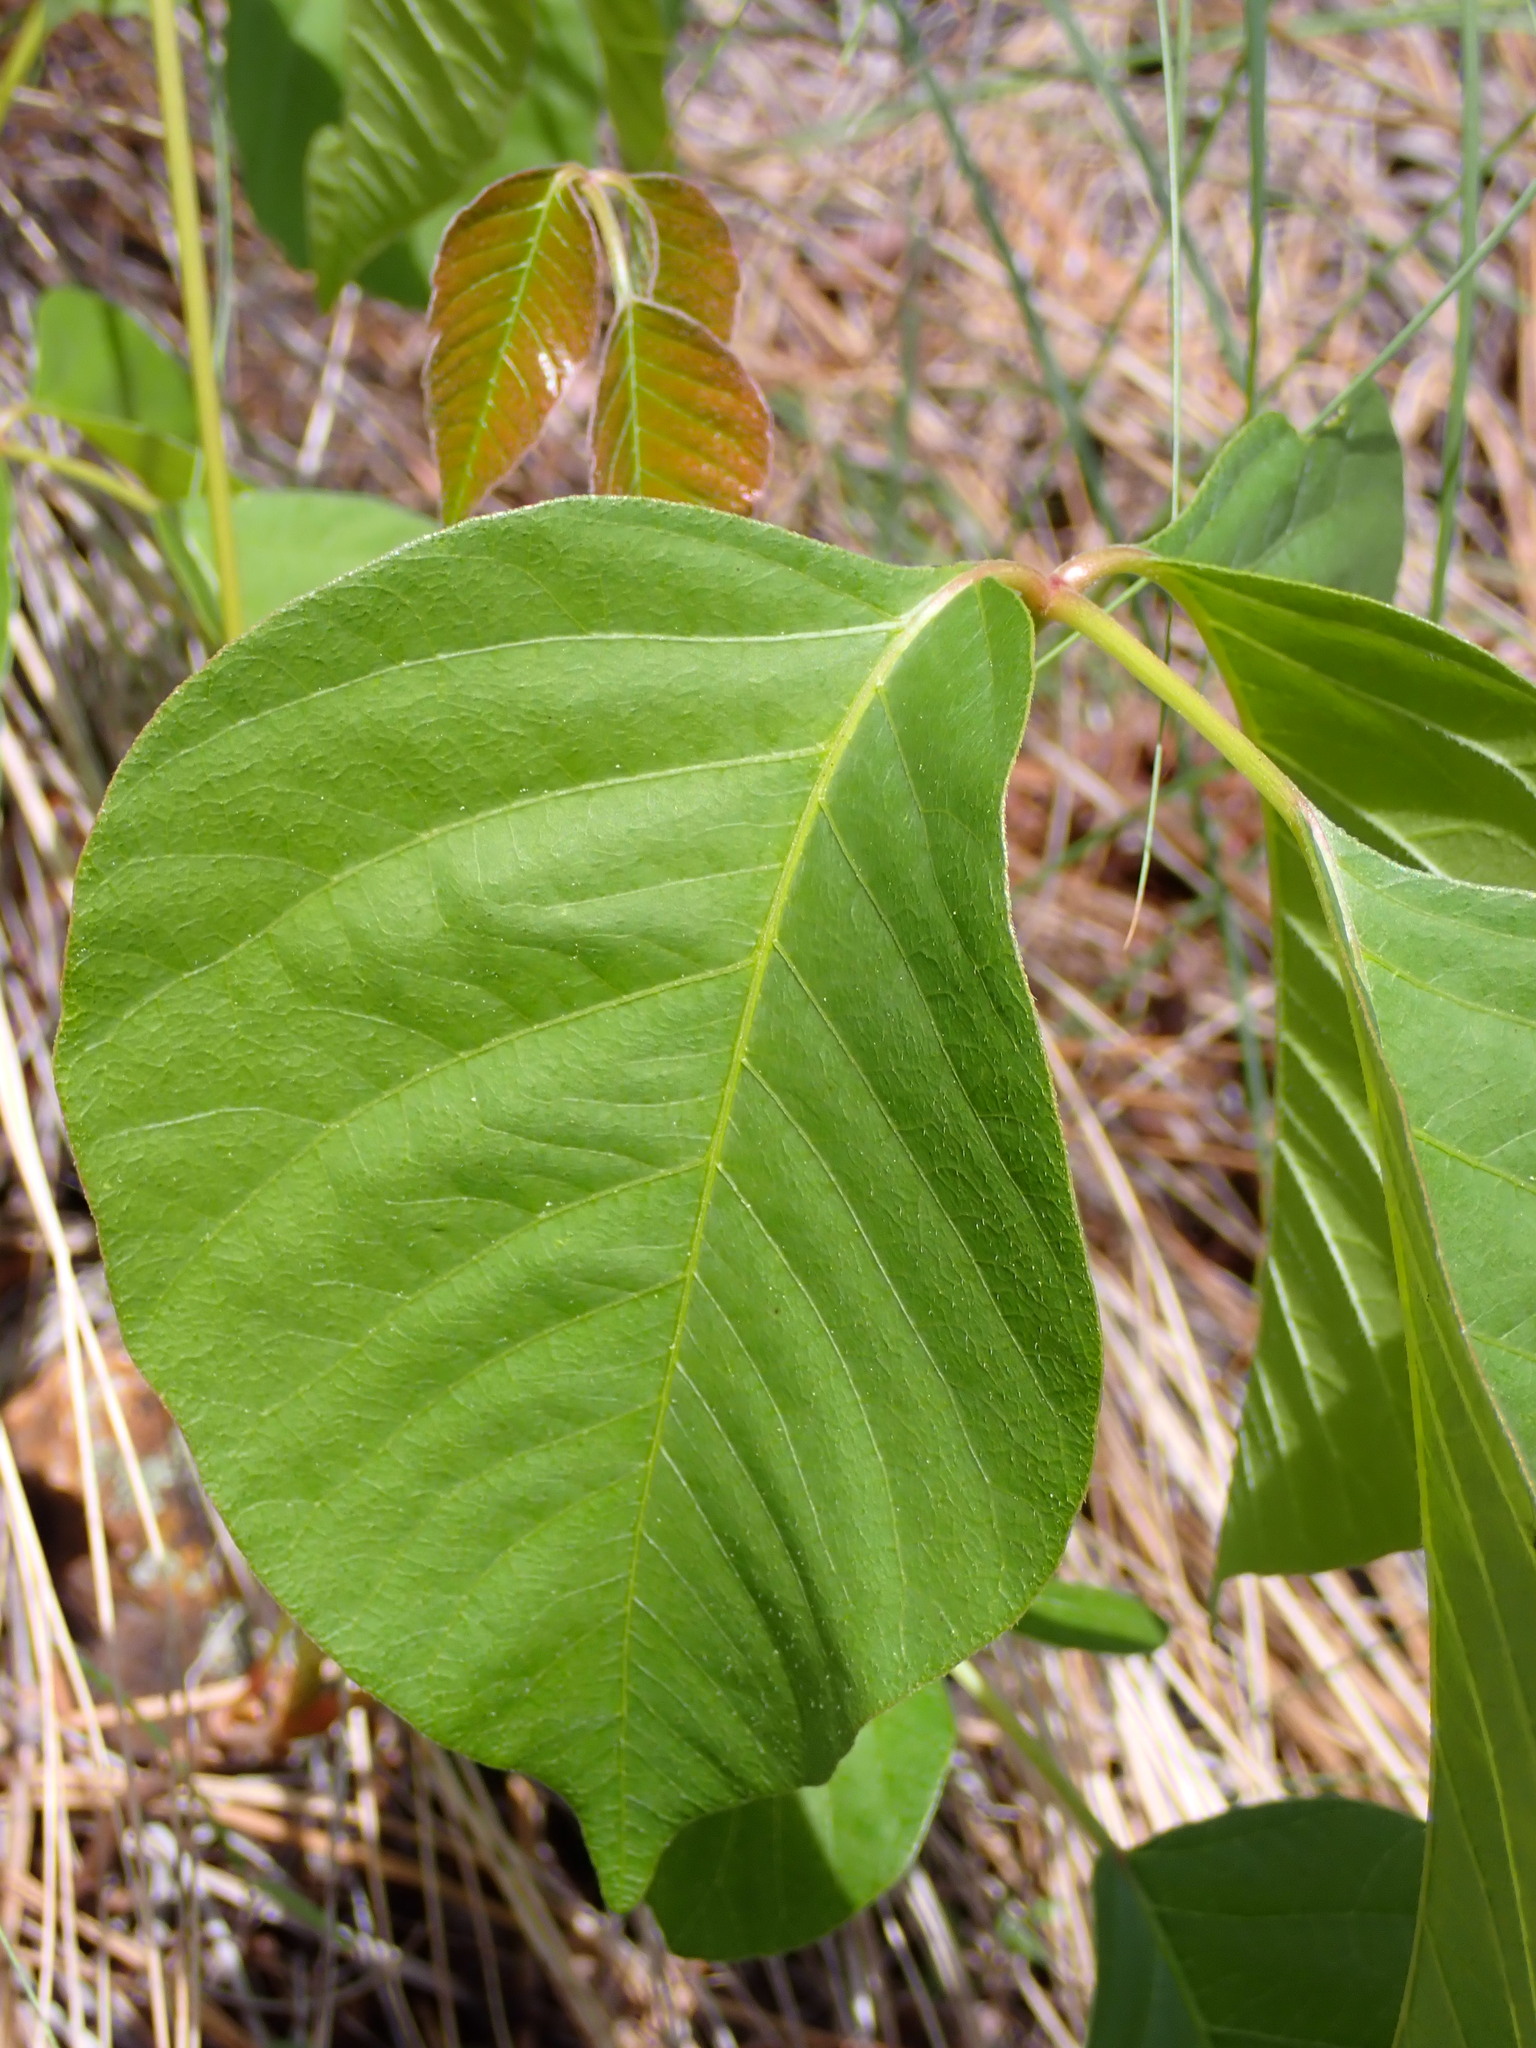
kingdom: Plantae
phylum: Tracheophyta
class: Magnoliopsida
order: Sapindales
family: Anacardiaceae
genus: Toxicodendron
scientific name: Toxicodendron rydbergii
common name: Rydberg's poison-ivy
